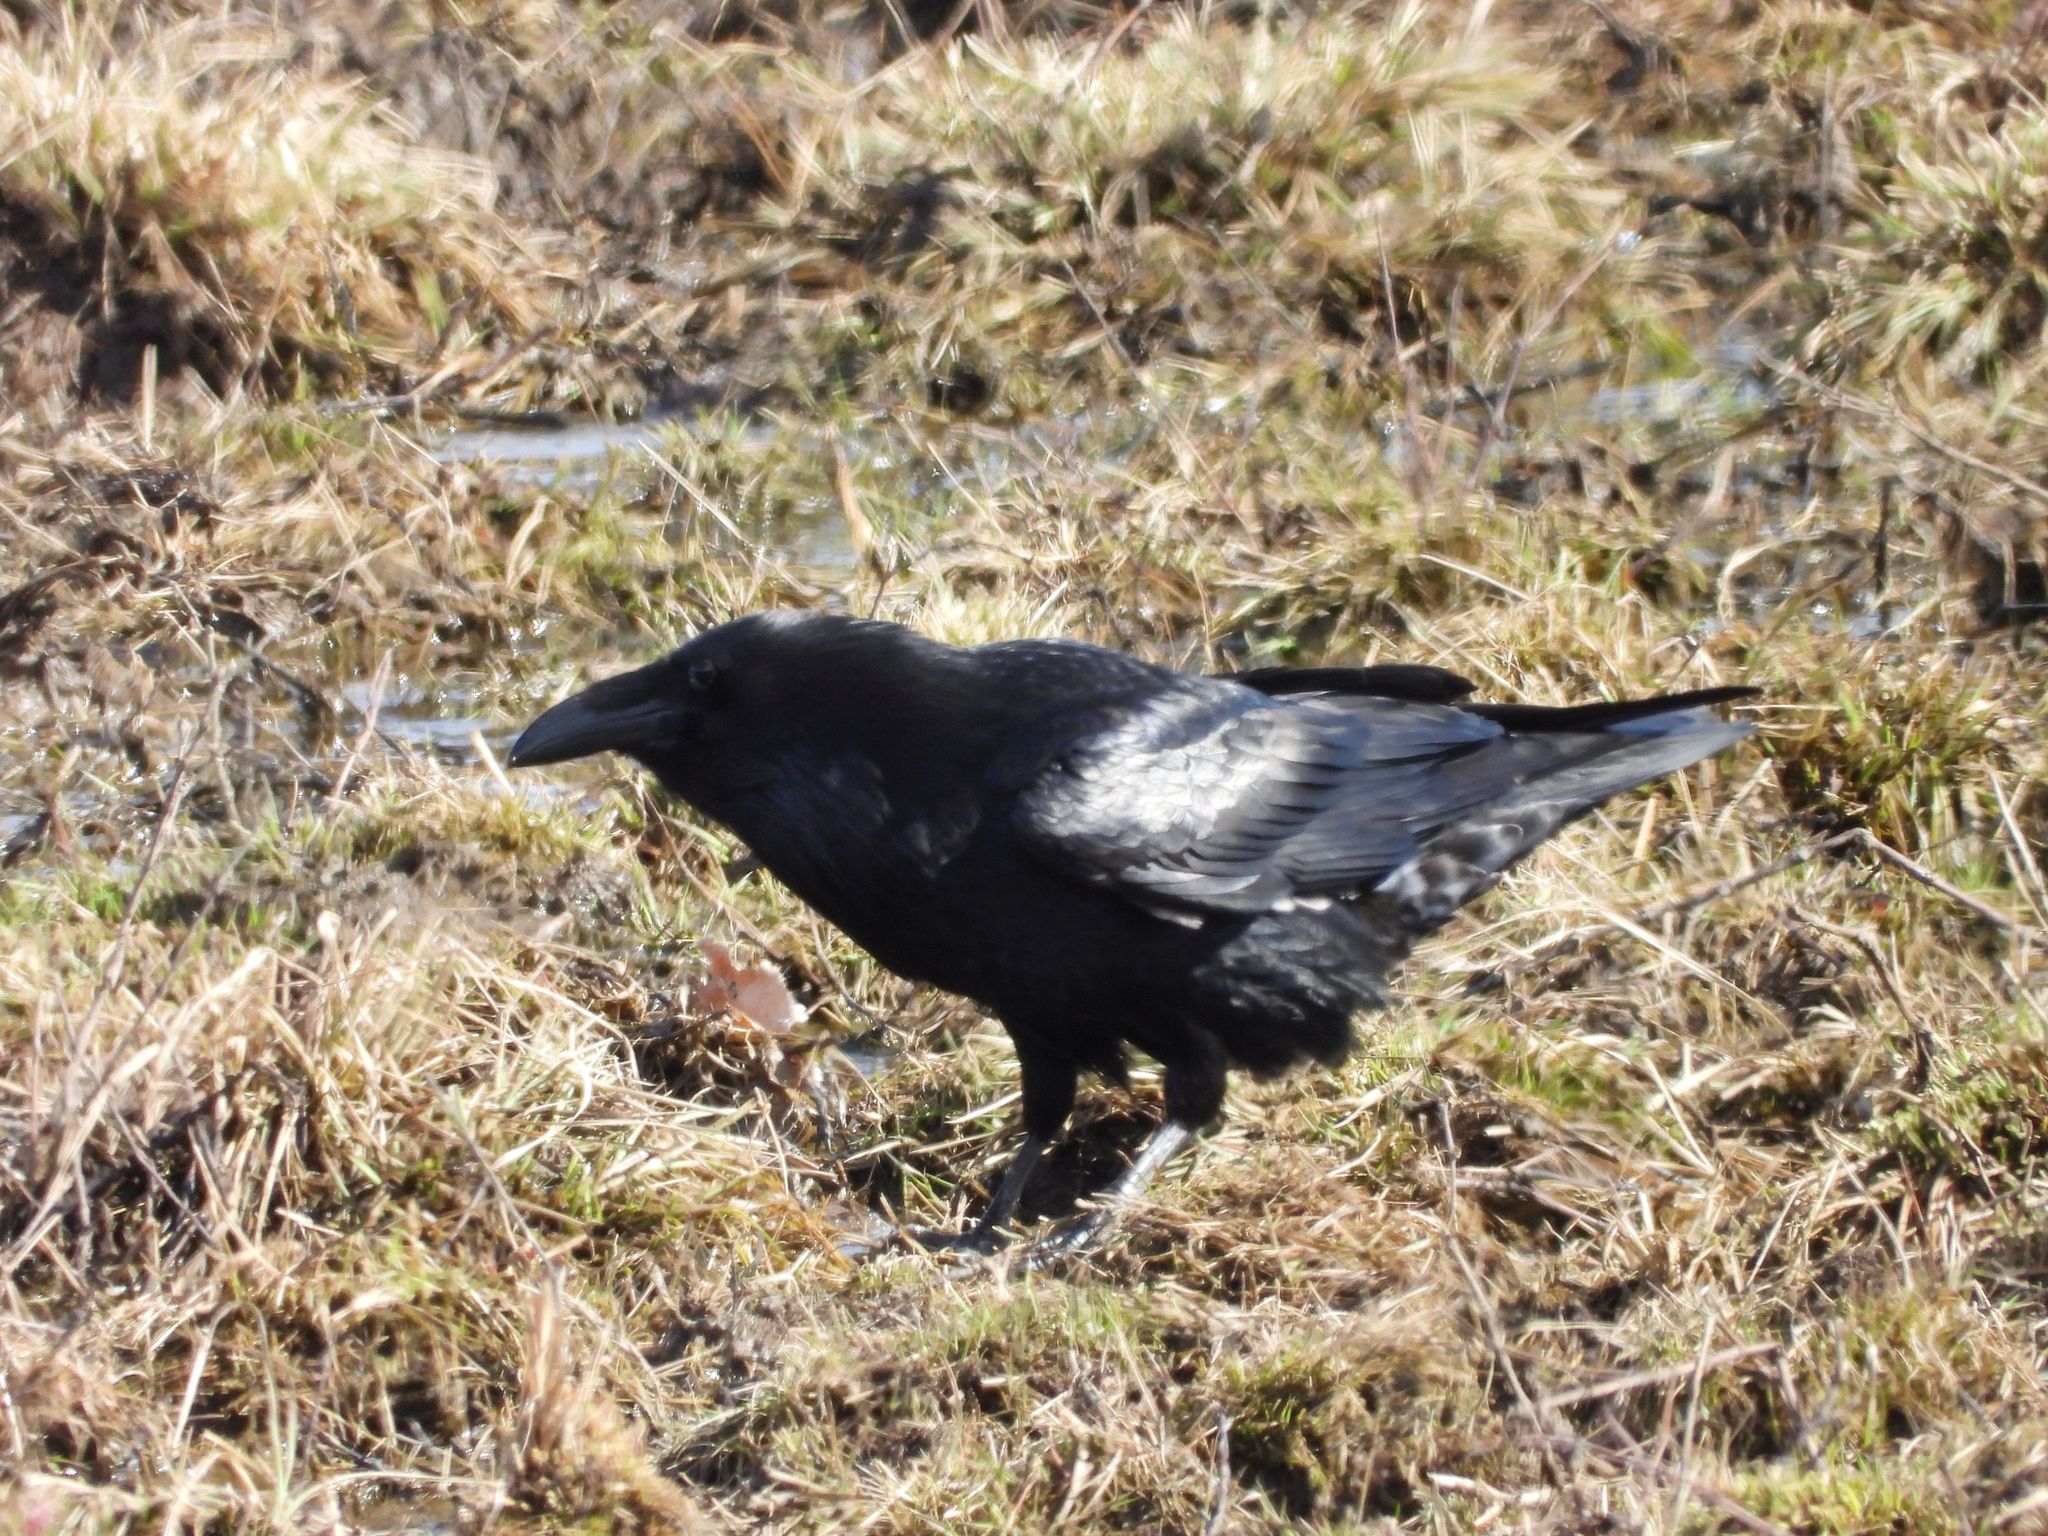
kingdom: Animalia
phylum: Chordata
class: Aves
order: Passeriformes
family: Corvidae
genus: Corvus
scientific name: Corvus corax
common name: Common raven
